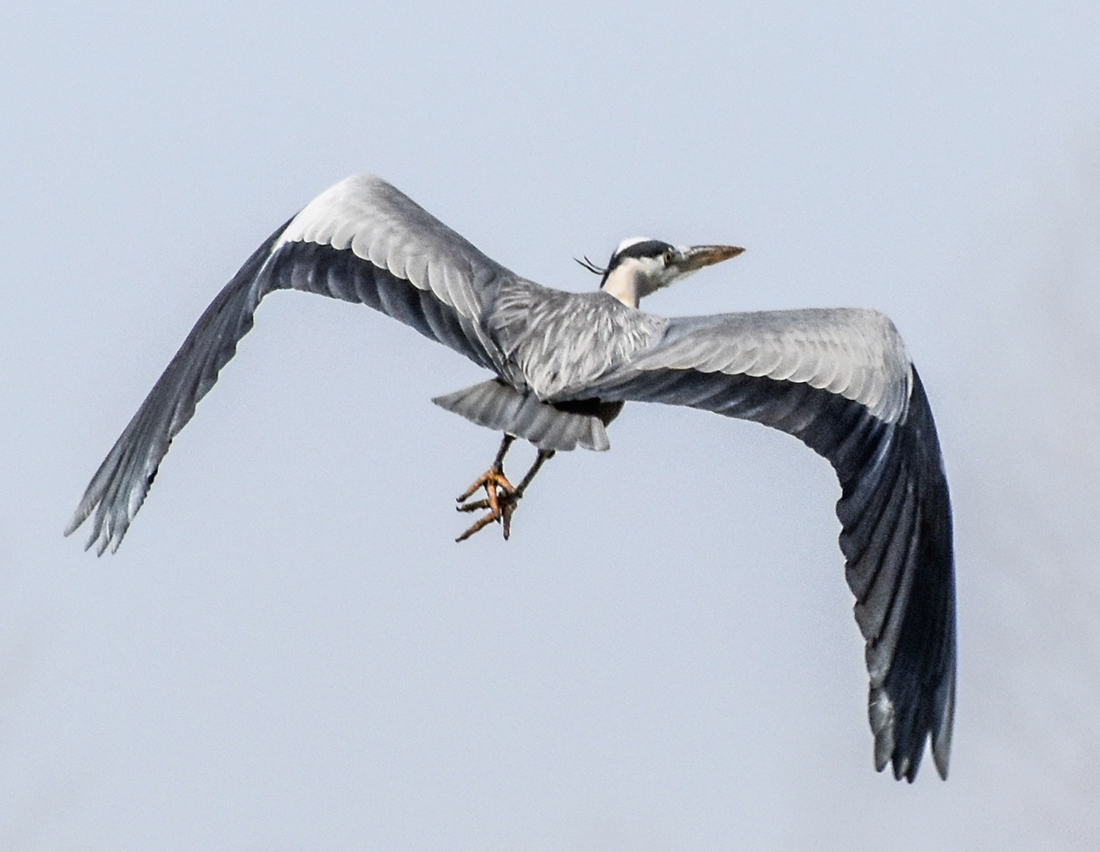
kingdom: Animalia
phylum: Chordata
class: Aves
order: Pelecaniformes
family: Ardeidae
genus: Ardea
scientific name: Ardea cinerea
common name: Grey heron
